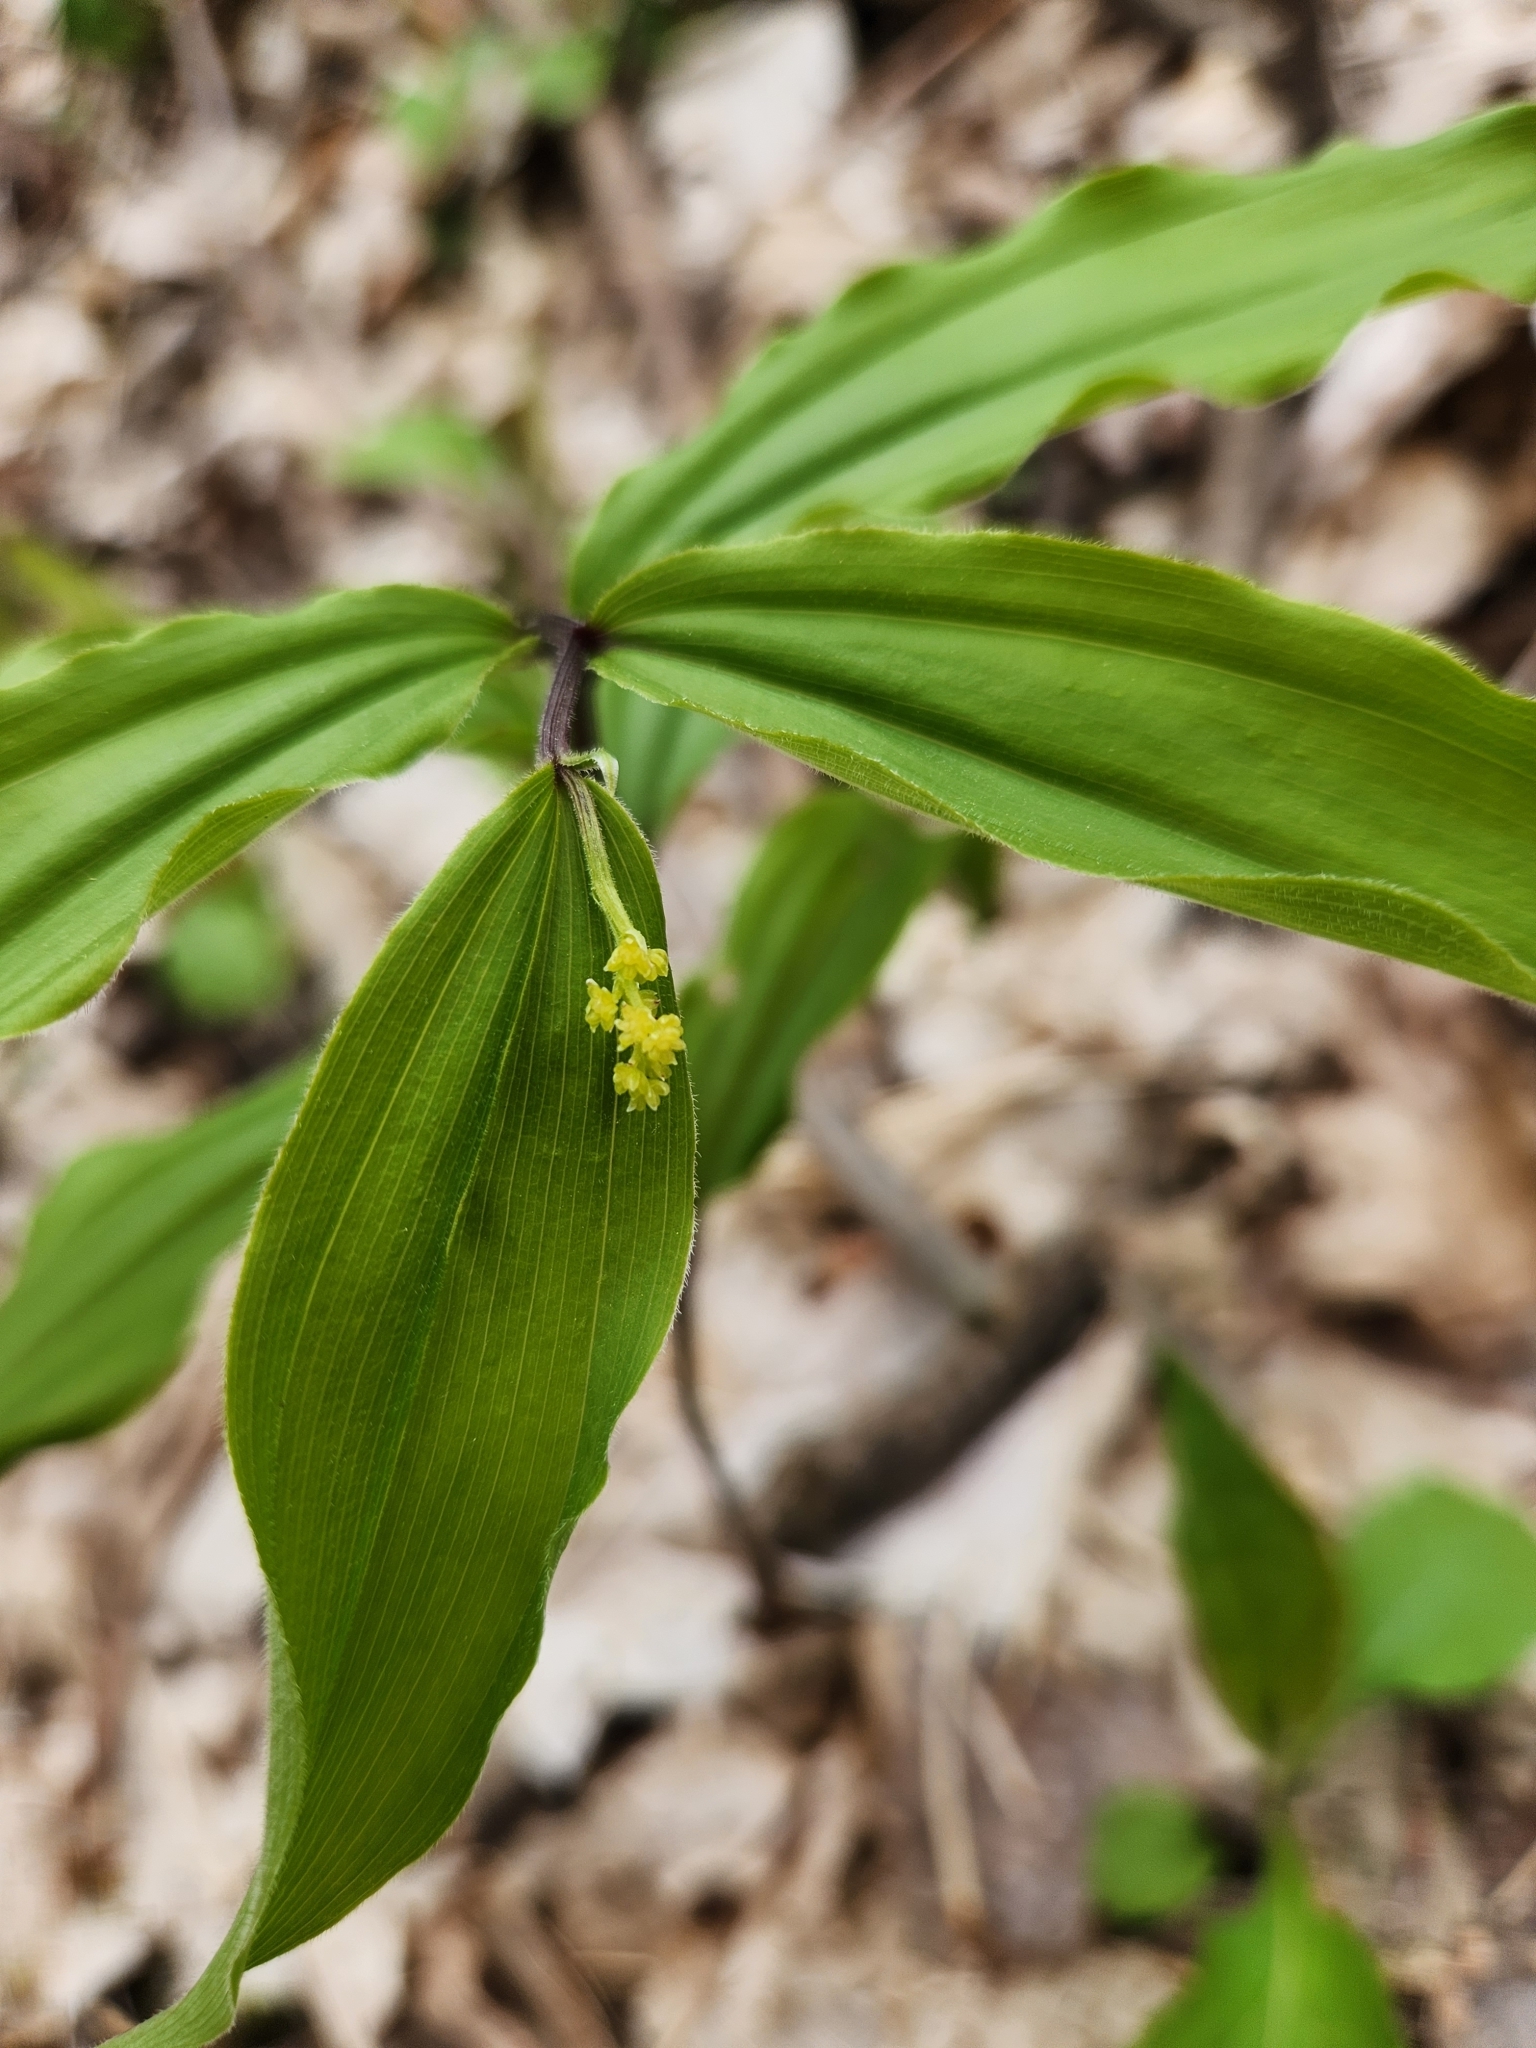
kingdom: Plantae
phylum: Tracheophyta
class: Liliopsida
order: Asparagales
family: Asparagaceae
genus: Maianthemum
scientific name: Maianthemum racemosum
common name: False spikenard
